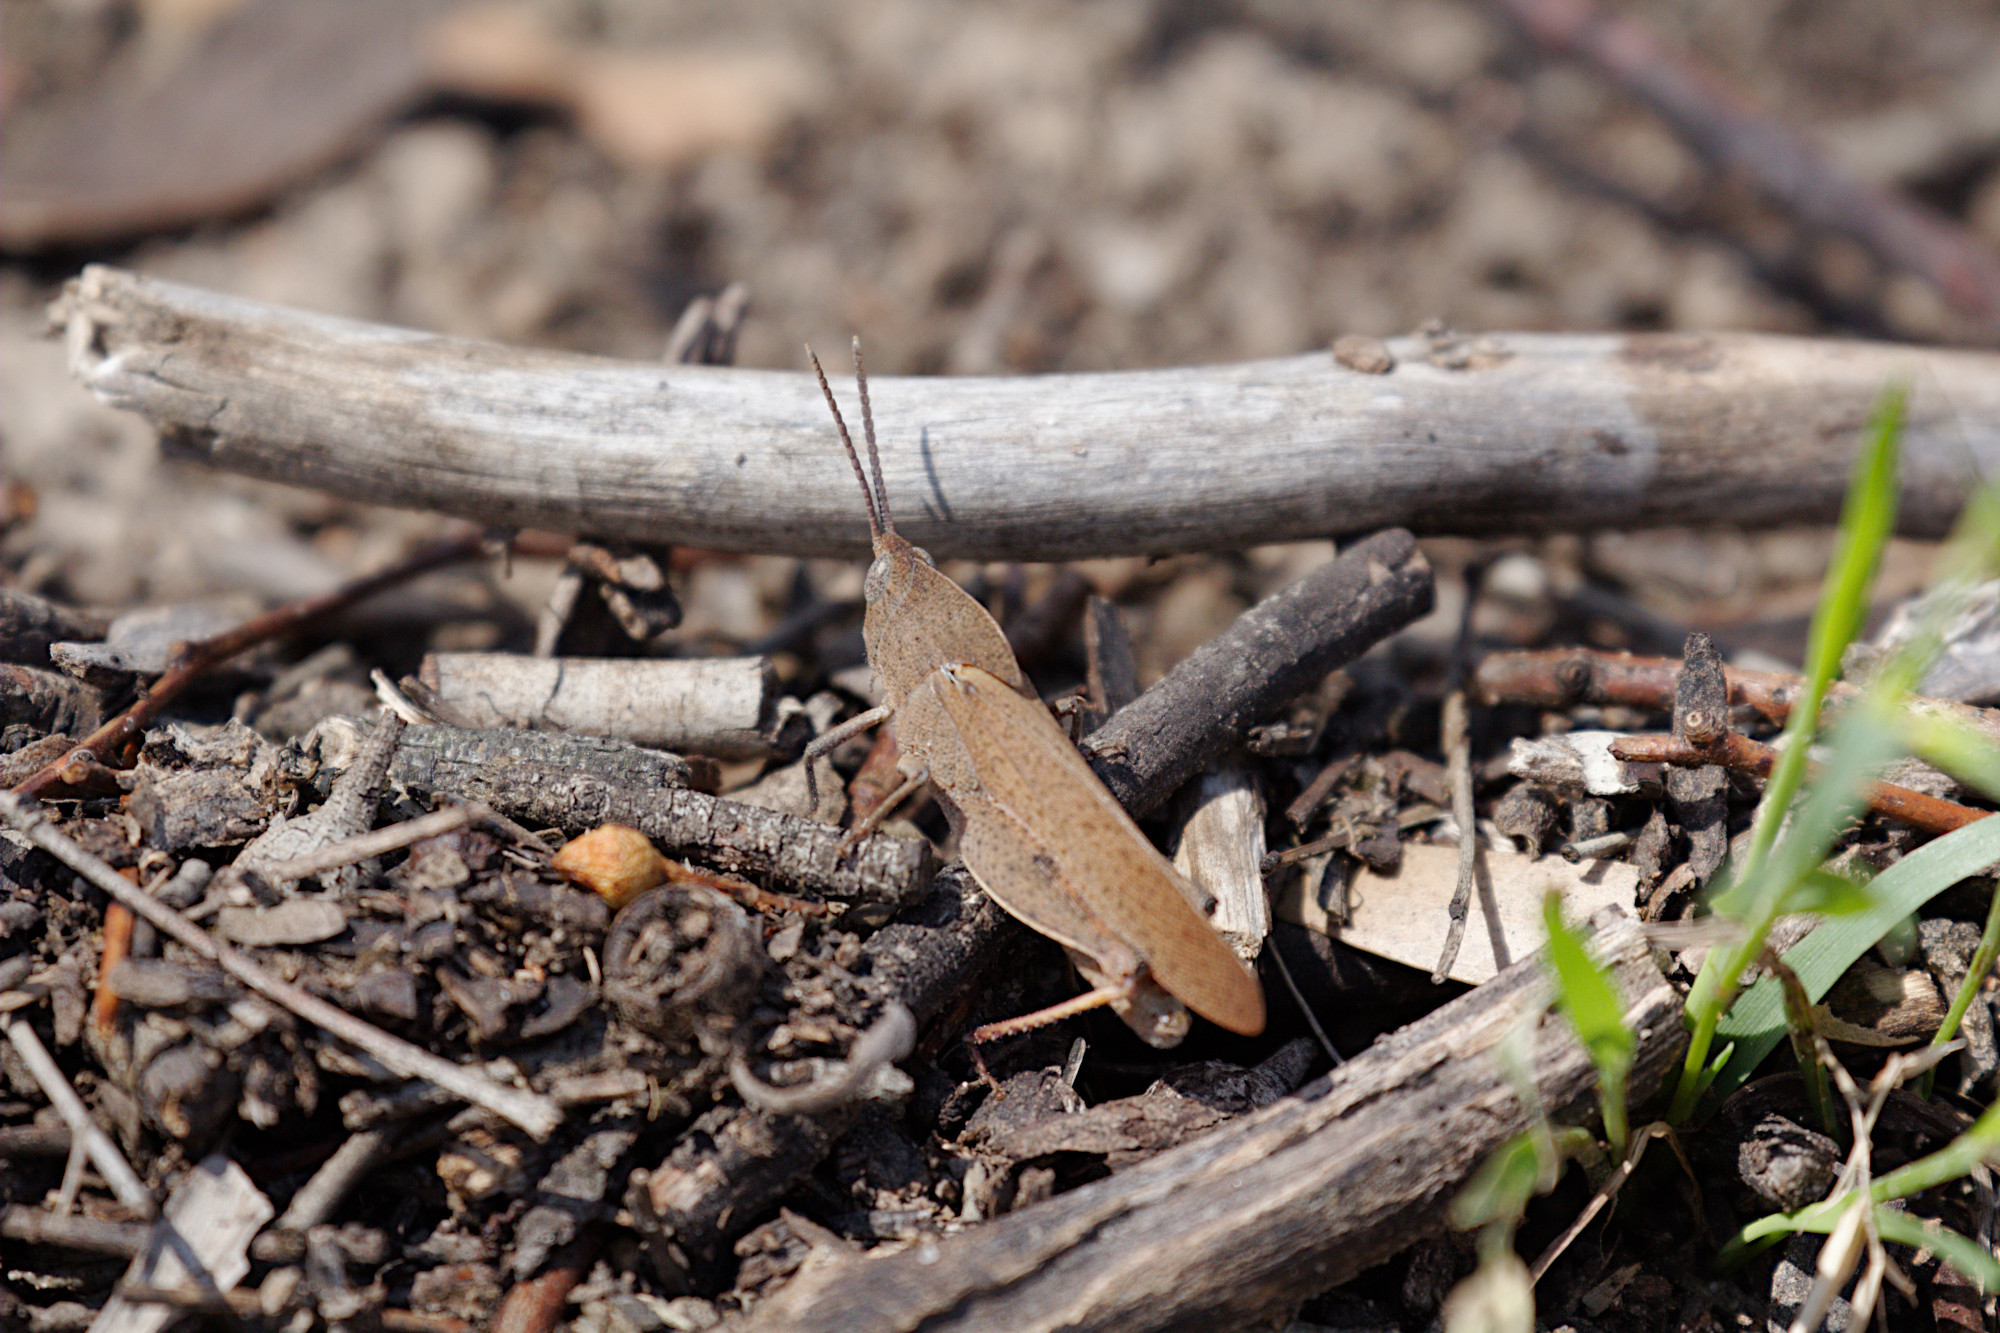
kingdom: Animalia
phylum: Arthropoda
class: Insecta
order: Orthoptera
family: Acrididae
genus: Goniaea
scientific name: Goniaea australasiae
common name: Gumleaf grasshopper
